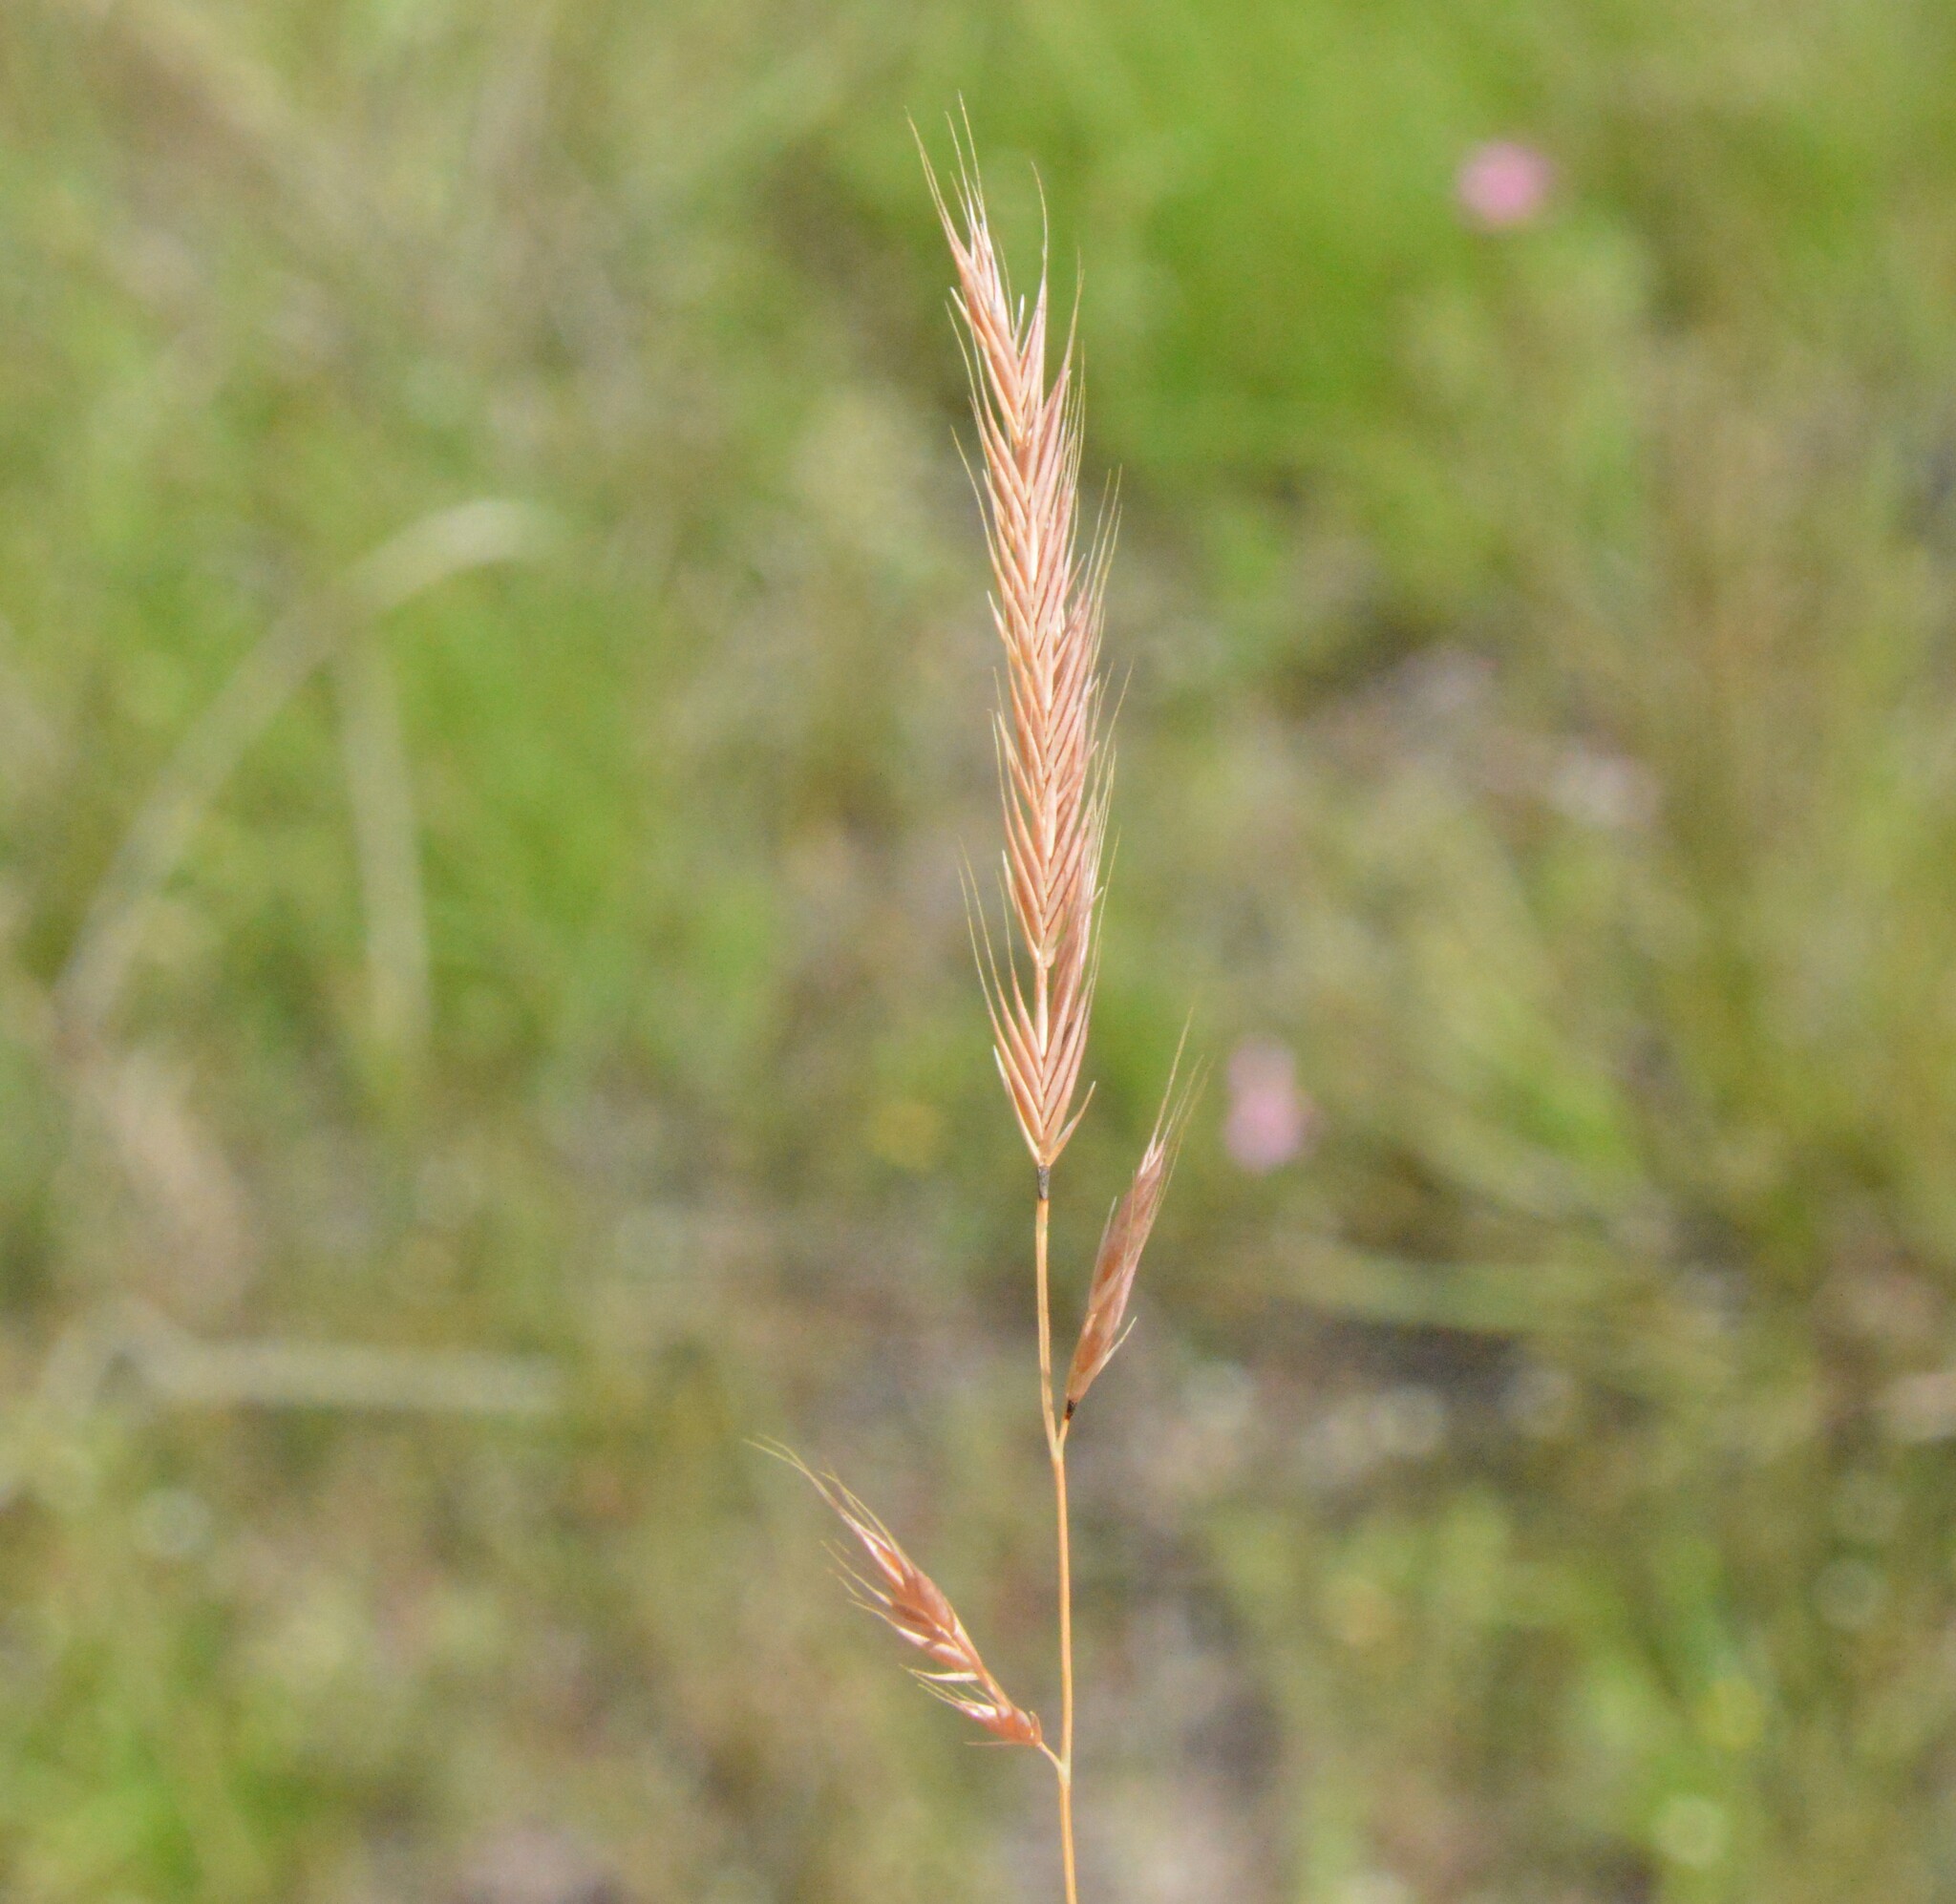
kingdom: Plantae
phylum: Tracheophyta
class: Liliopsida
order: Poales
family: Poaceae
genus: Festuca
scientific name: Festuca octoflora
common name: Sixweeks grass
